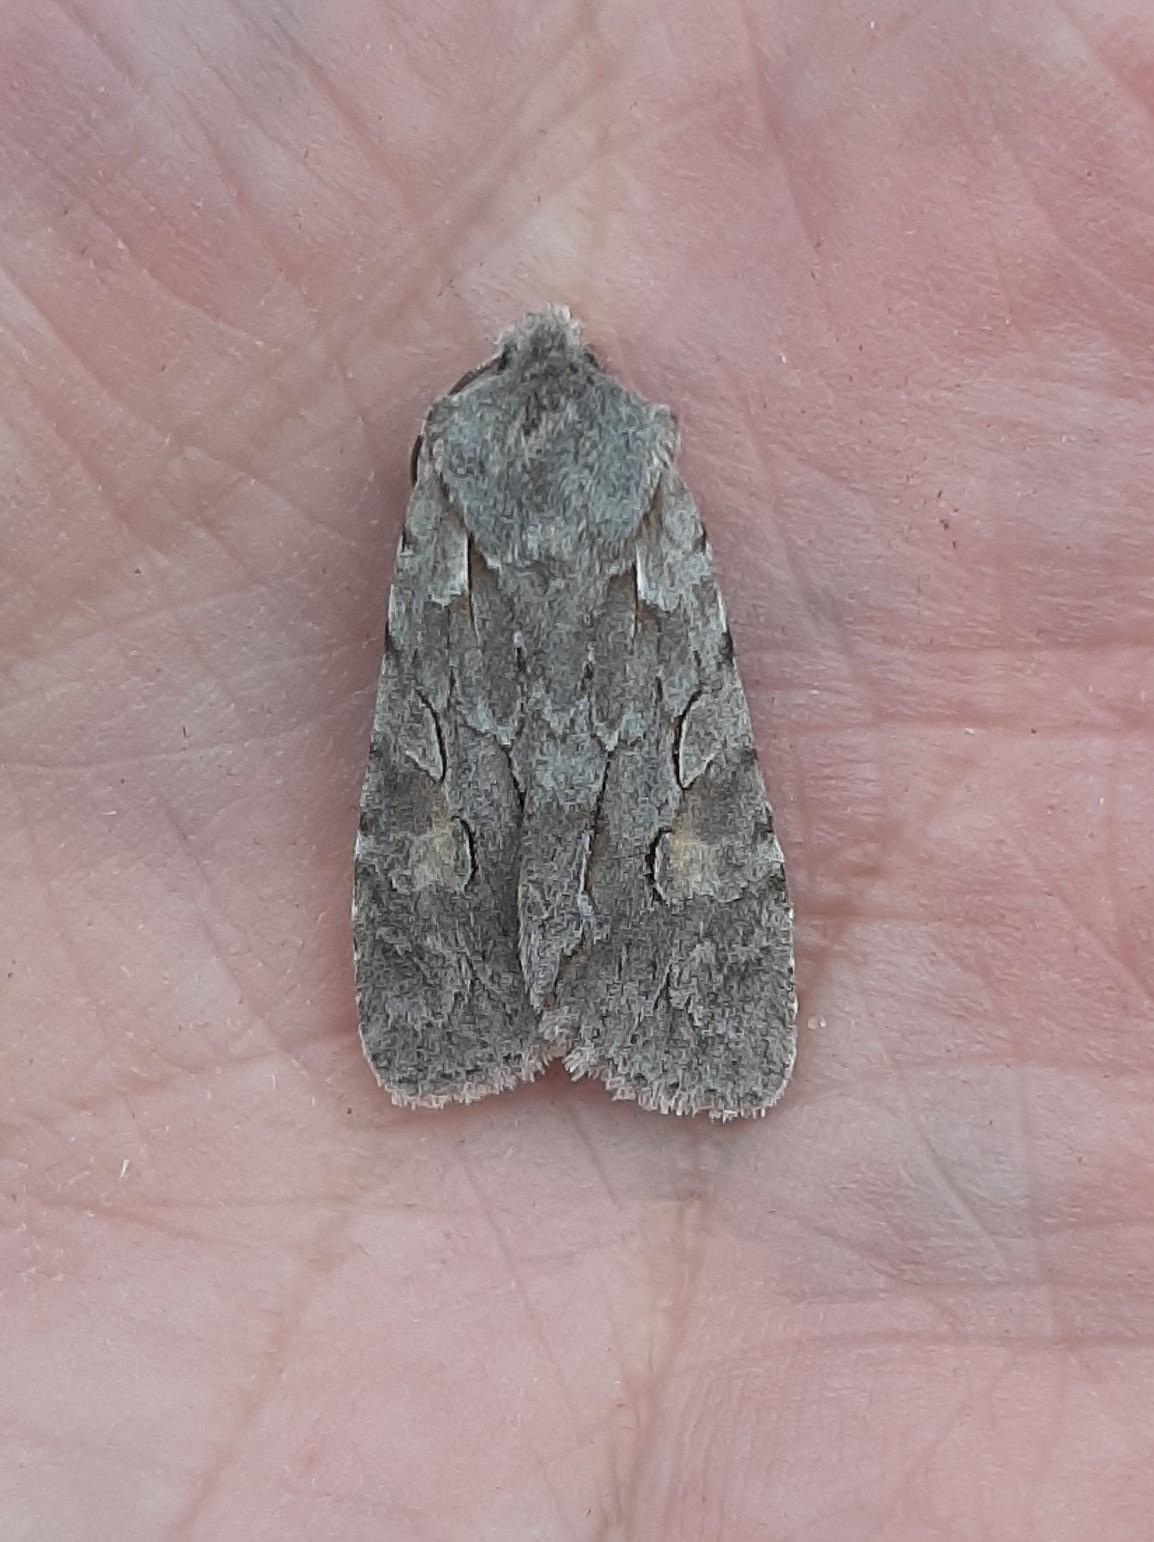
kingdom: Animalia
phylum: Arthropoda
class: Insecta
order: Lepidoptera
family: Noctuidae
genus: Lithophane
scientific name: Lithophane lamda
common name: Nonconformist
